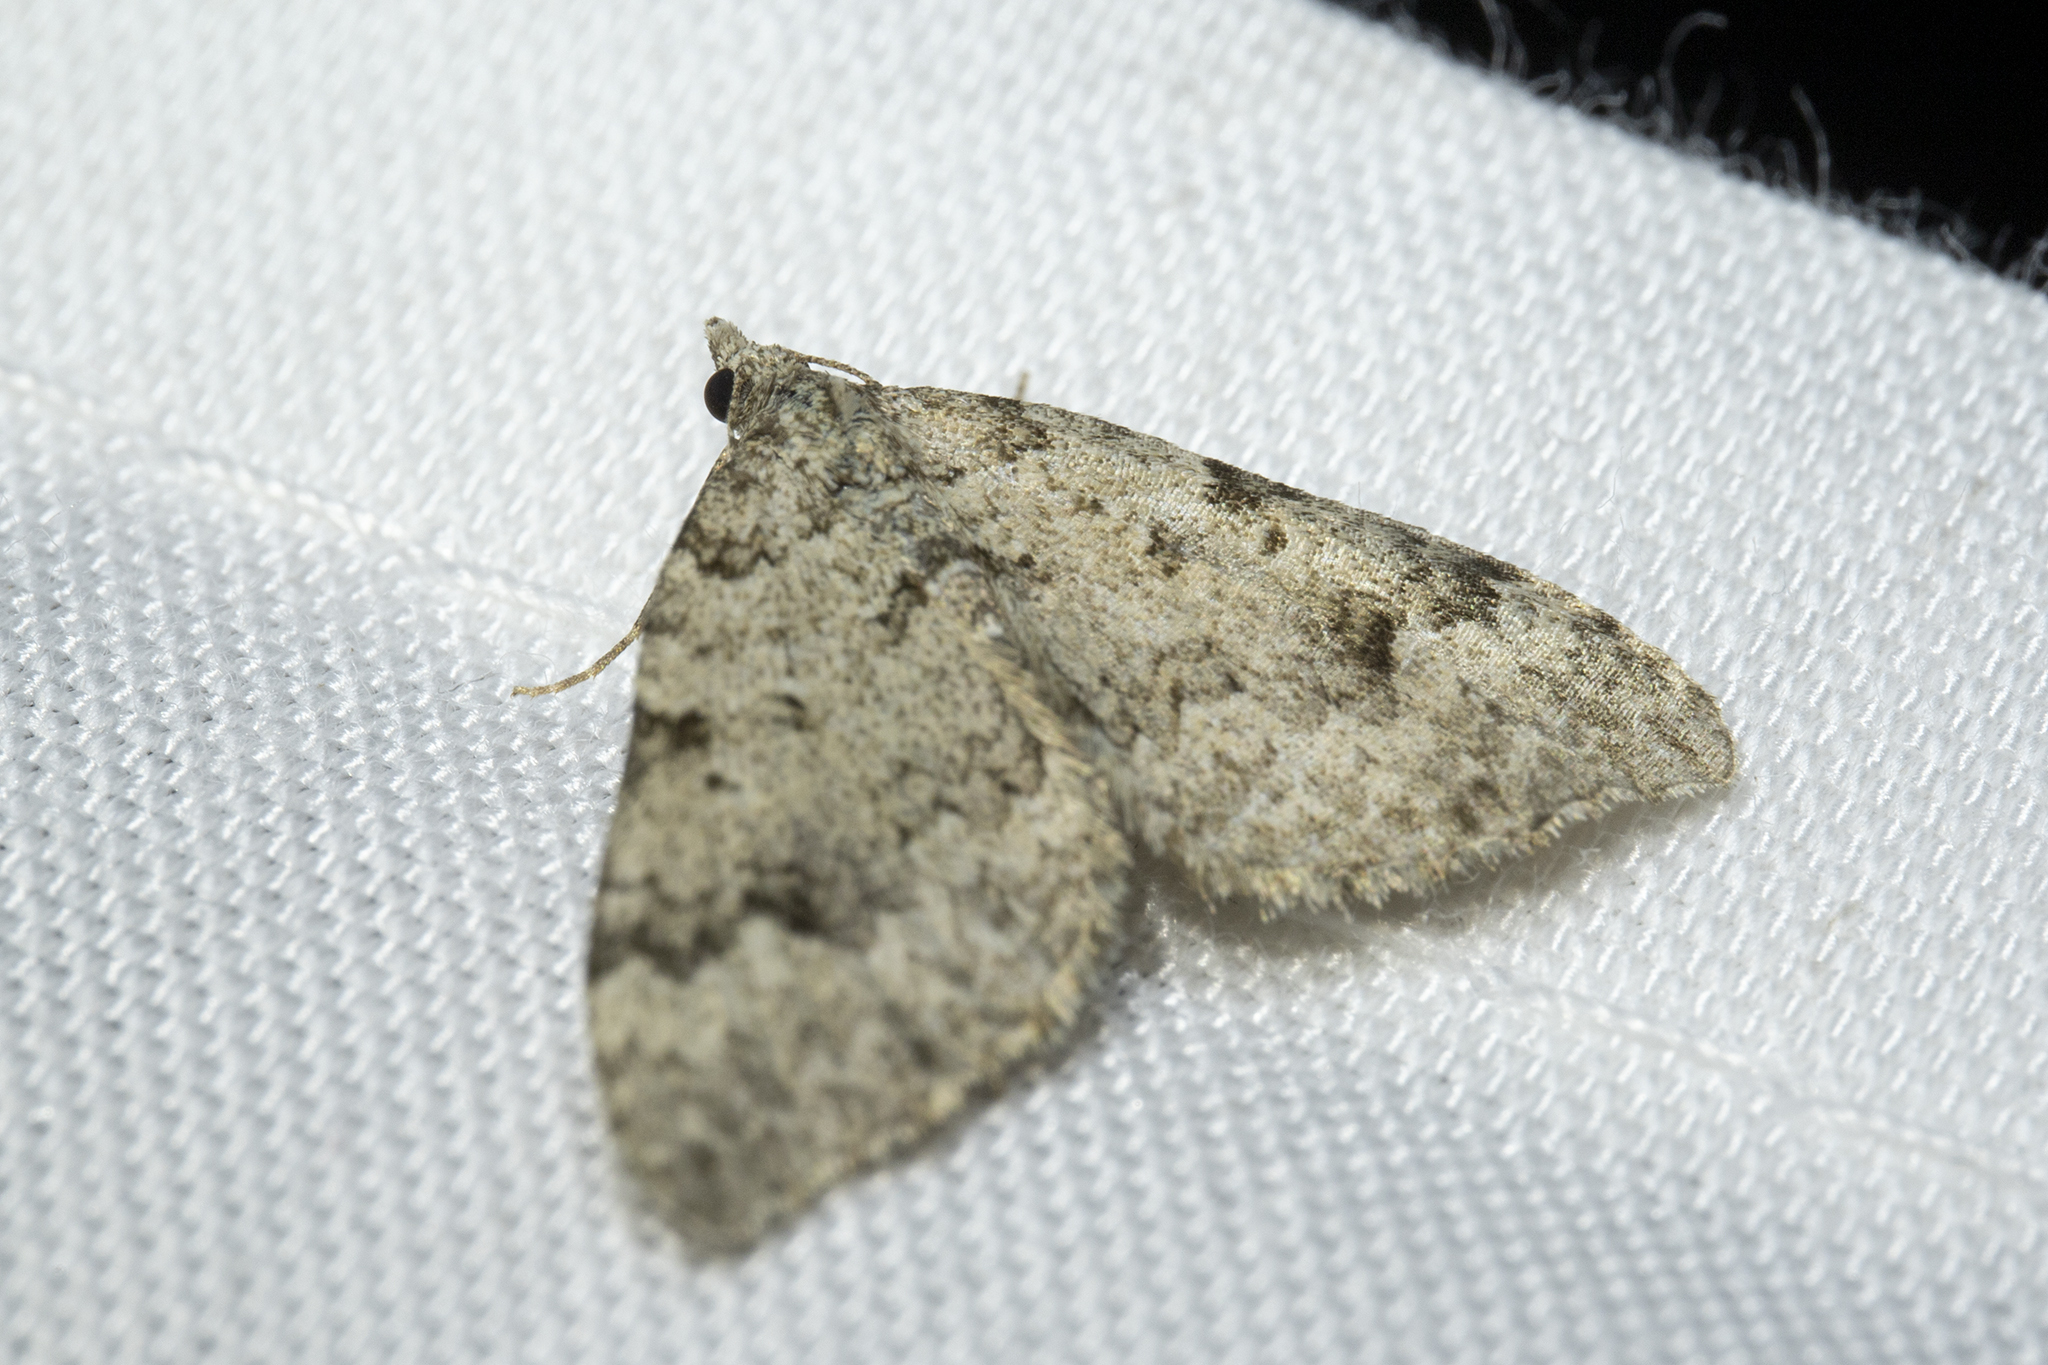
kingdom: Animalia
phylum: Arthropoda
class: Insecta
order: Lepidoptera
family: Geometridae
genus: Helastia
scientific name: Helastia cinerearia
